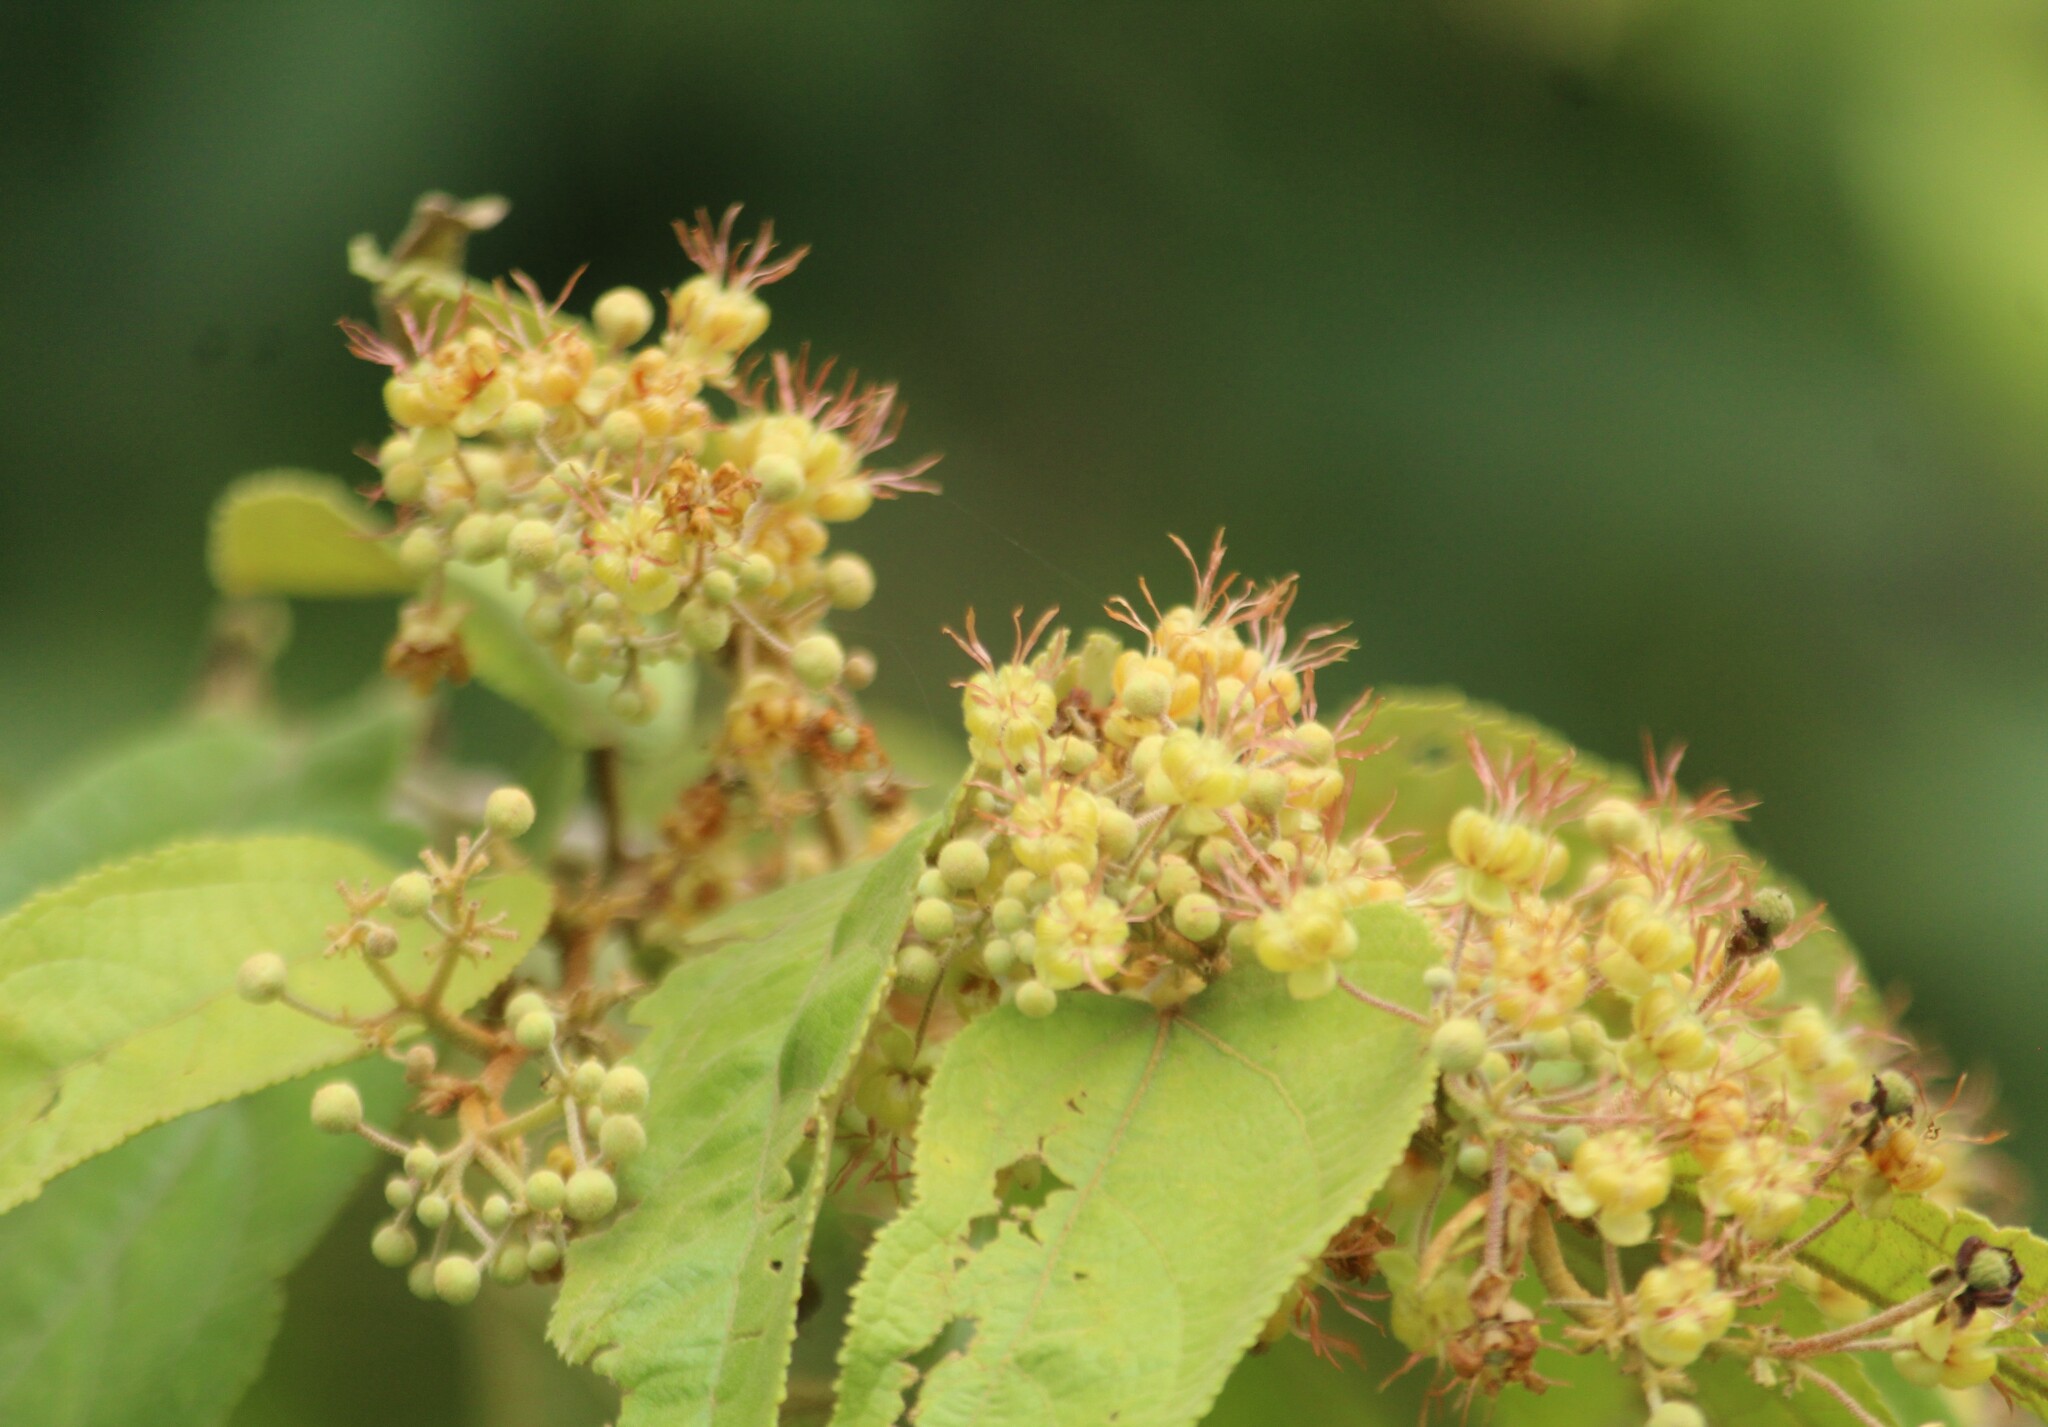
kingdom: Plantae
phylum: Tracheophyta
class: Magnoliopsida
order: Malvales
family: Malvaceae
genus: Guazuma
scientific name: Guazuma ulmifolia
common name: Bastard-cedar
